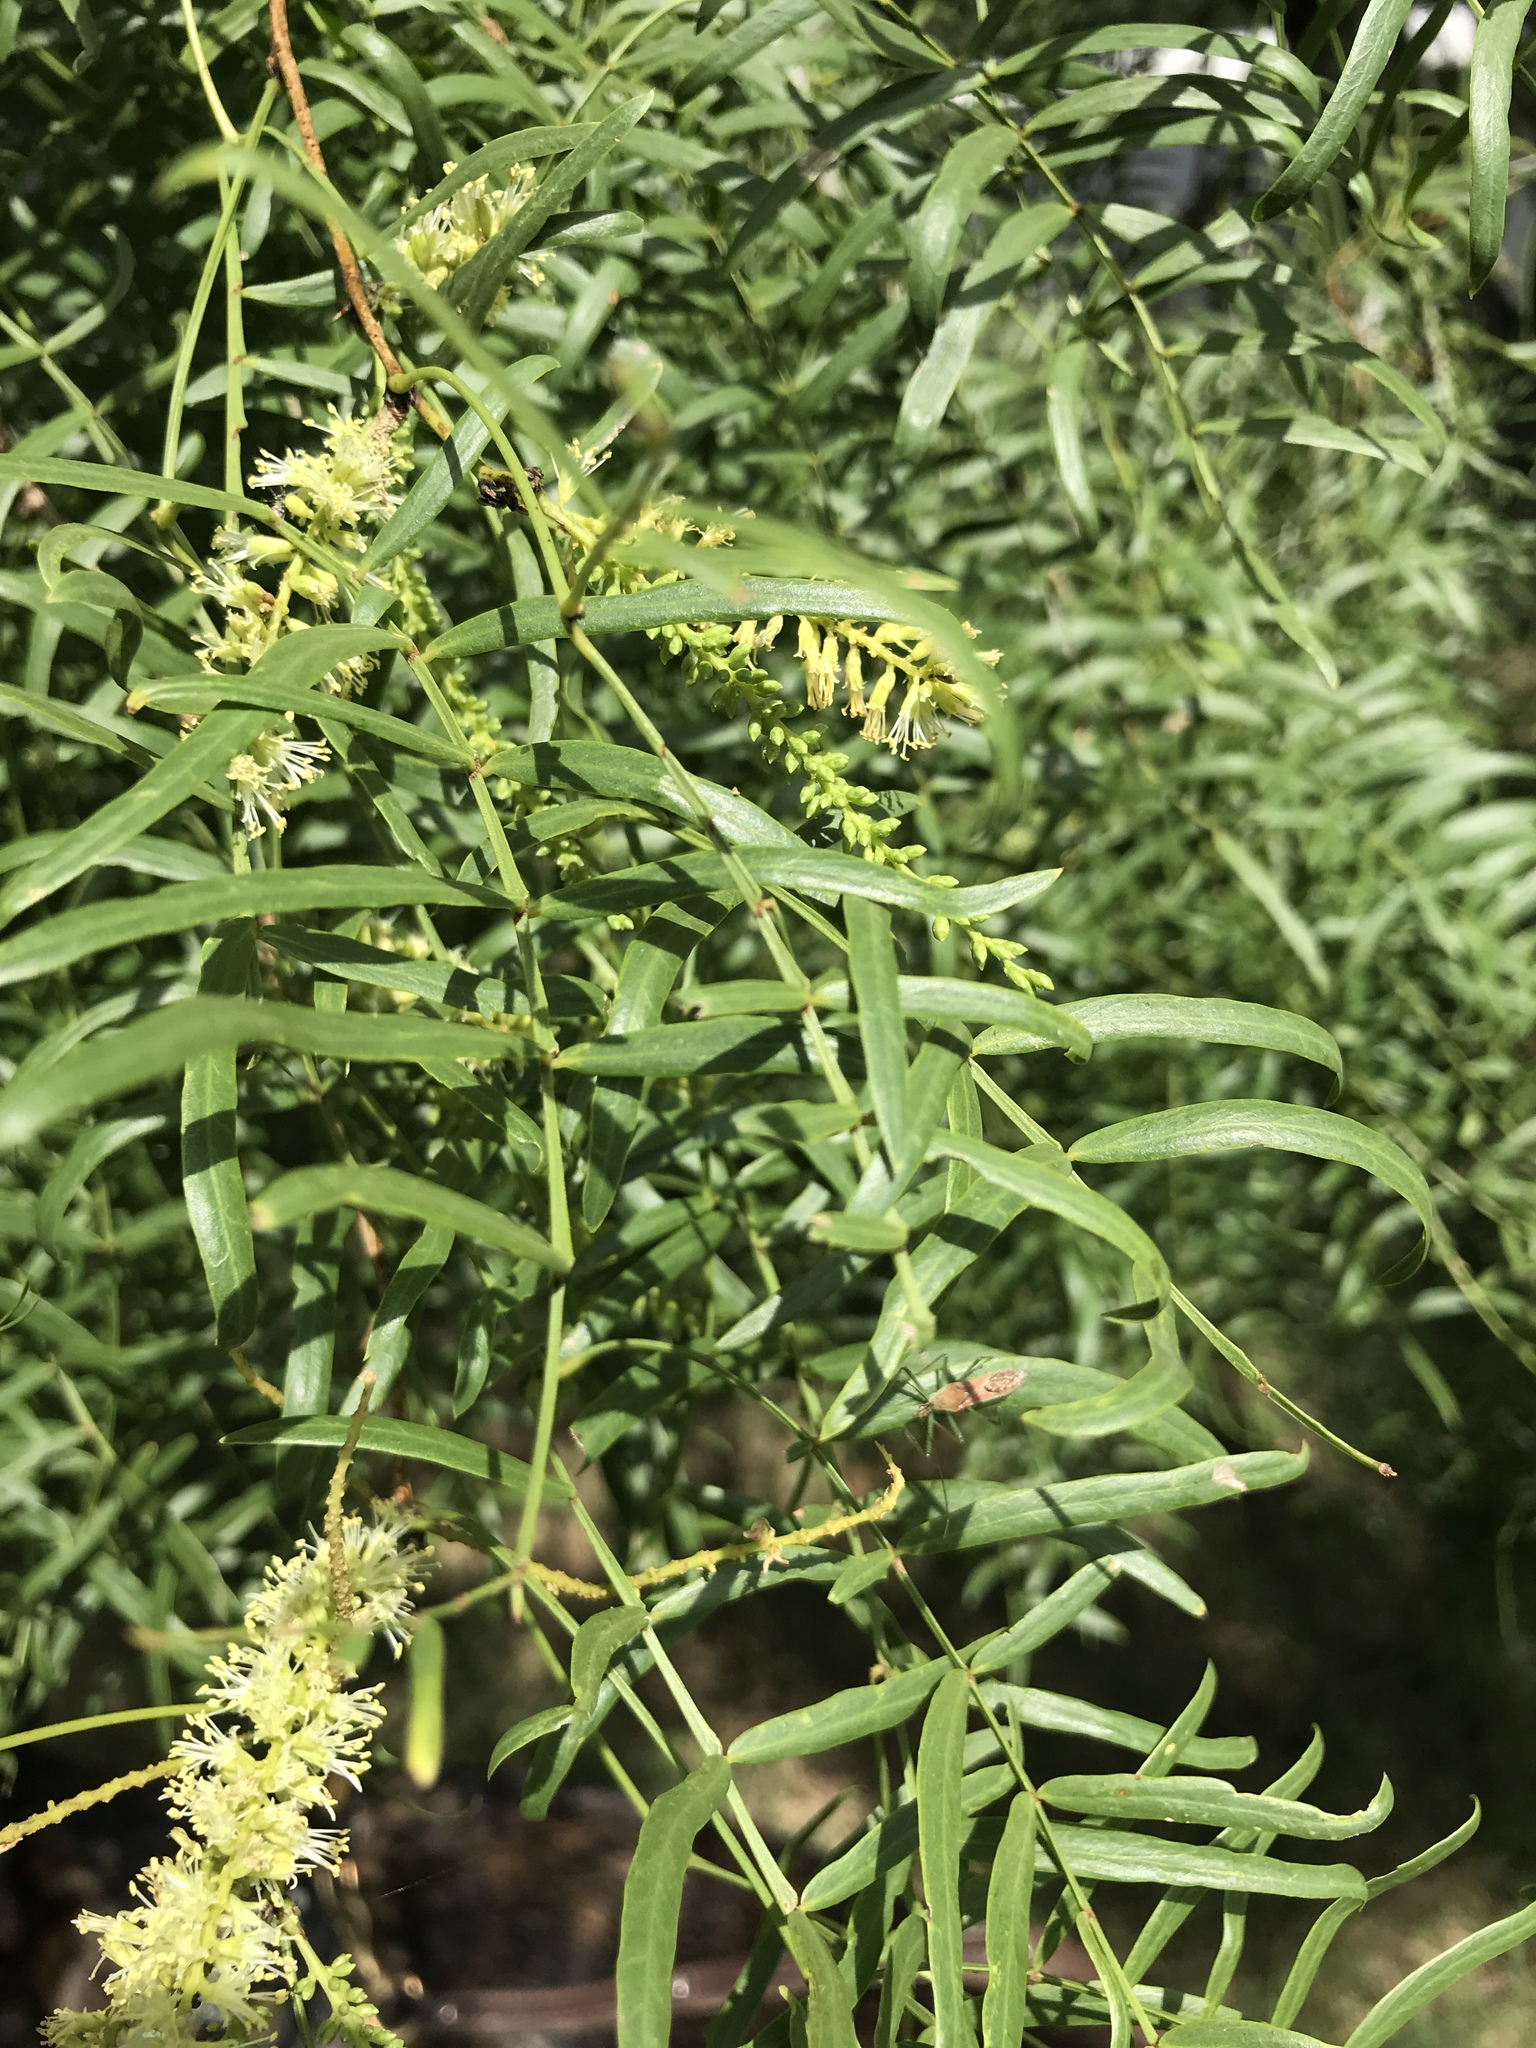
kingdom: Plantae
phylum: Tracheophyta
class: Magnoliopsida
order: Fabales
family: Fabaceae
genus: Prosopis
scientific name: Prosopis glandulosa
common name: Honey mesquite
